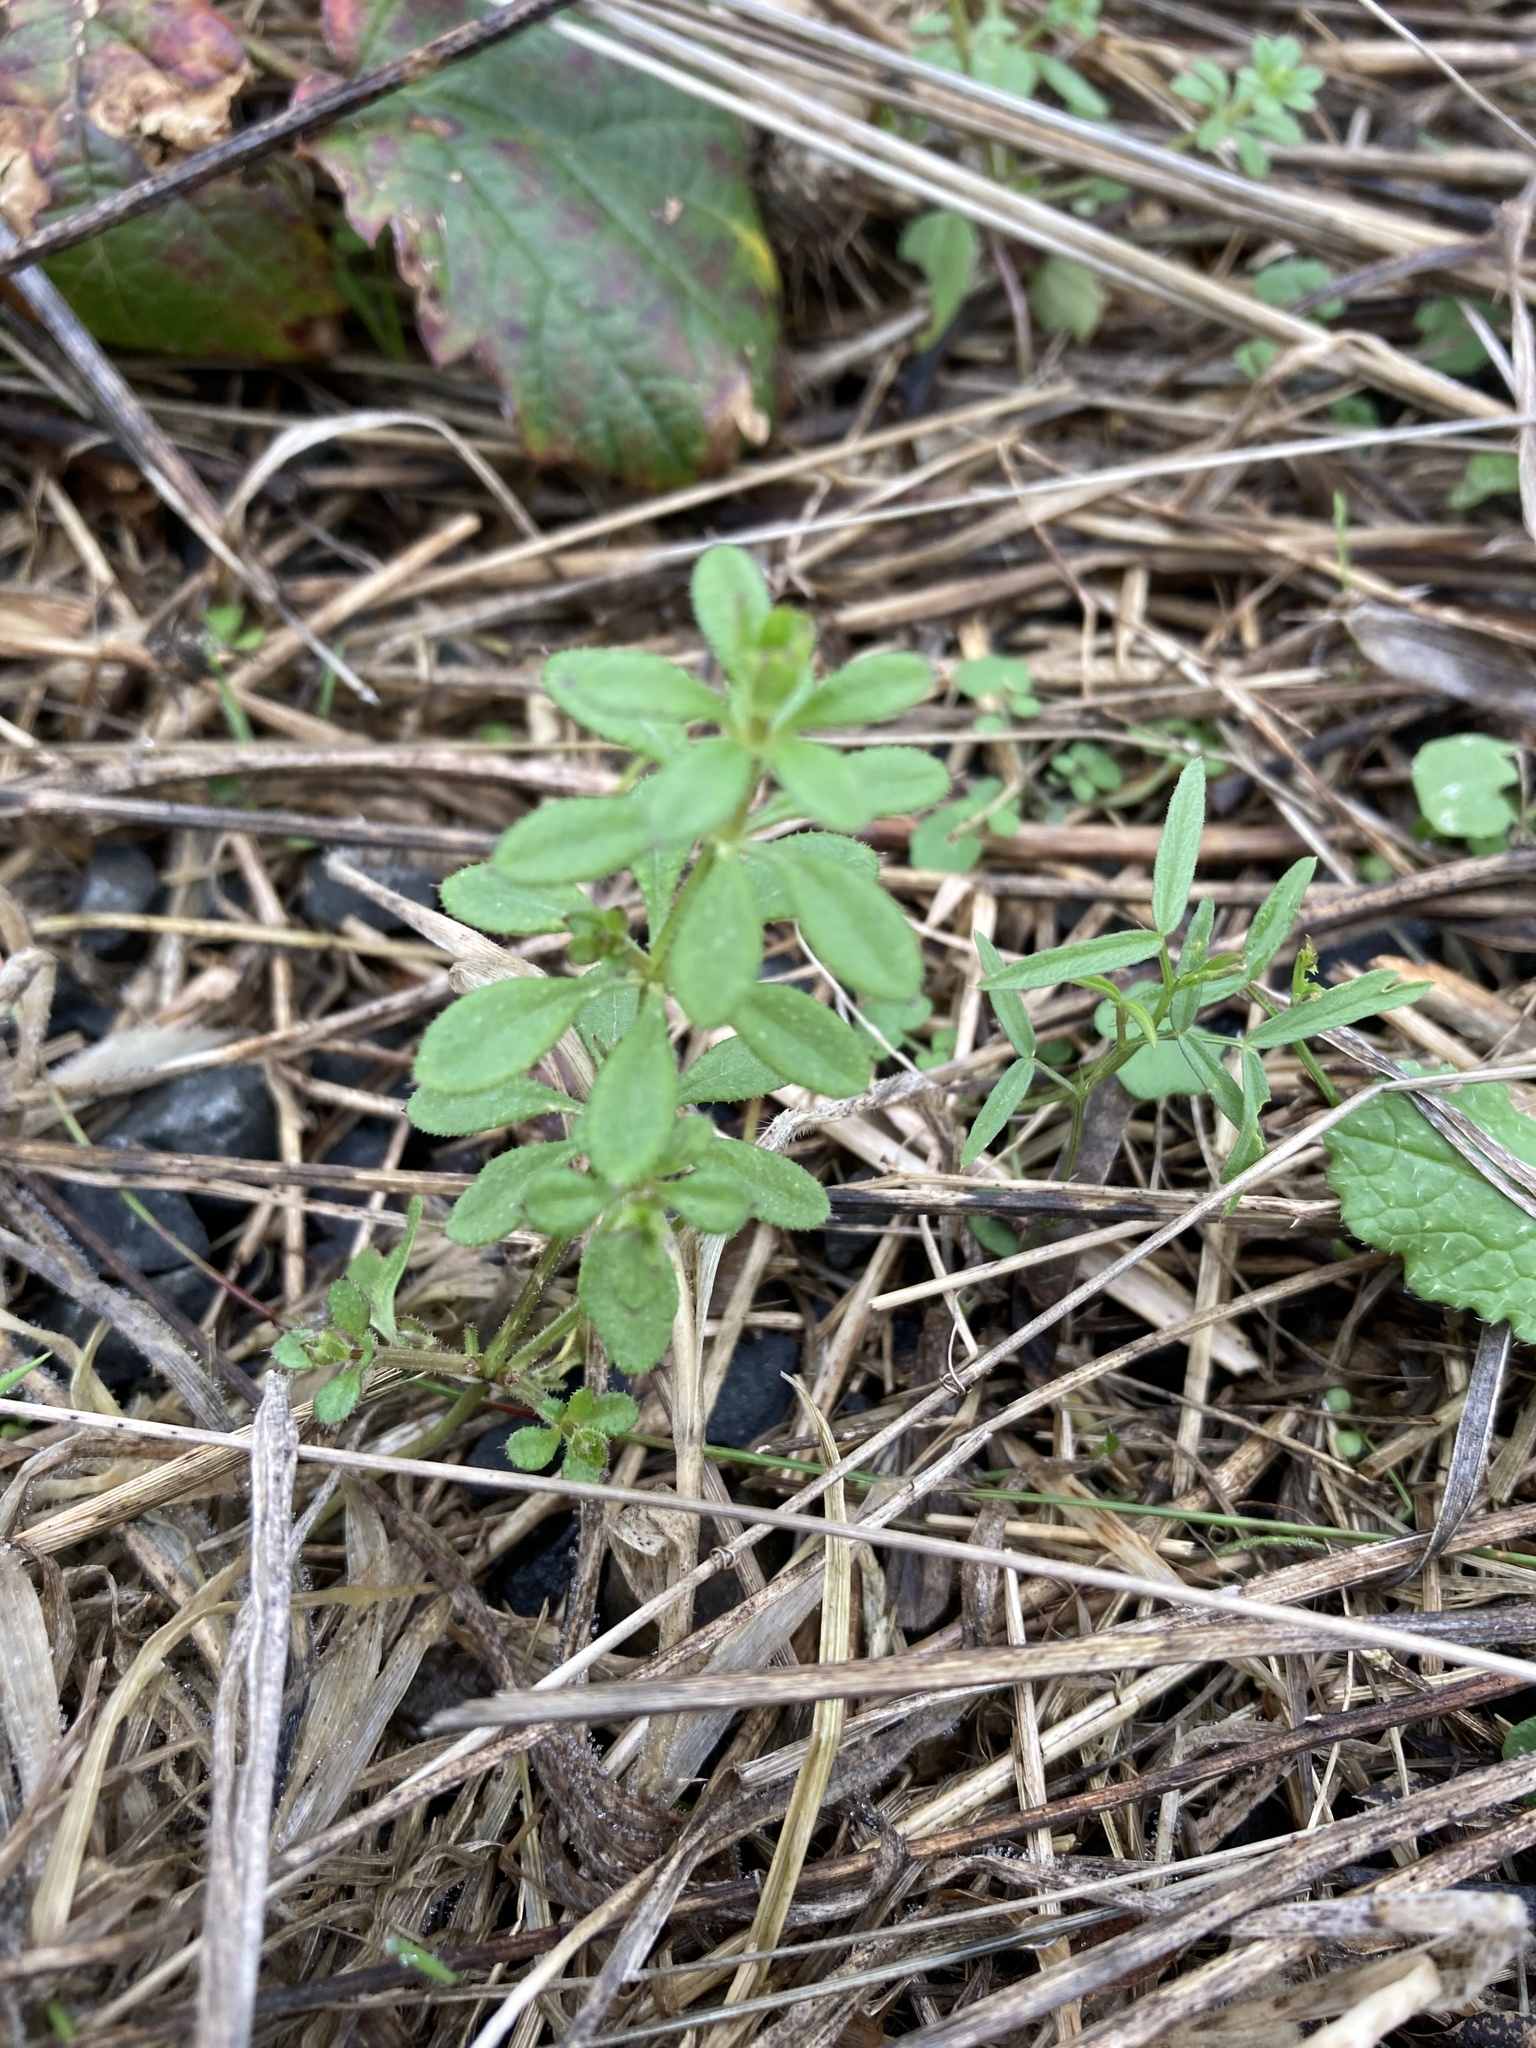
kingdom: Plantae
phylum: Tracheophyta
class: Magnoliopsida
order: Gentianales
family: Rubiaceae
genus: Galium
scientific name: Galium aparine
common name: Cleavers
